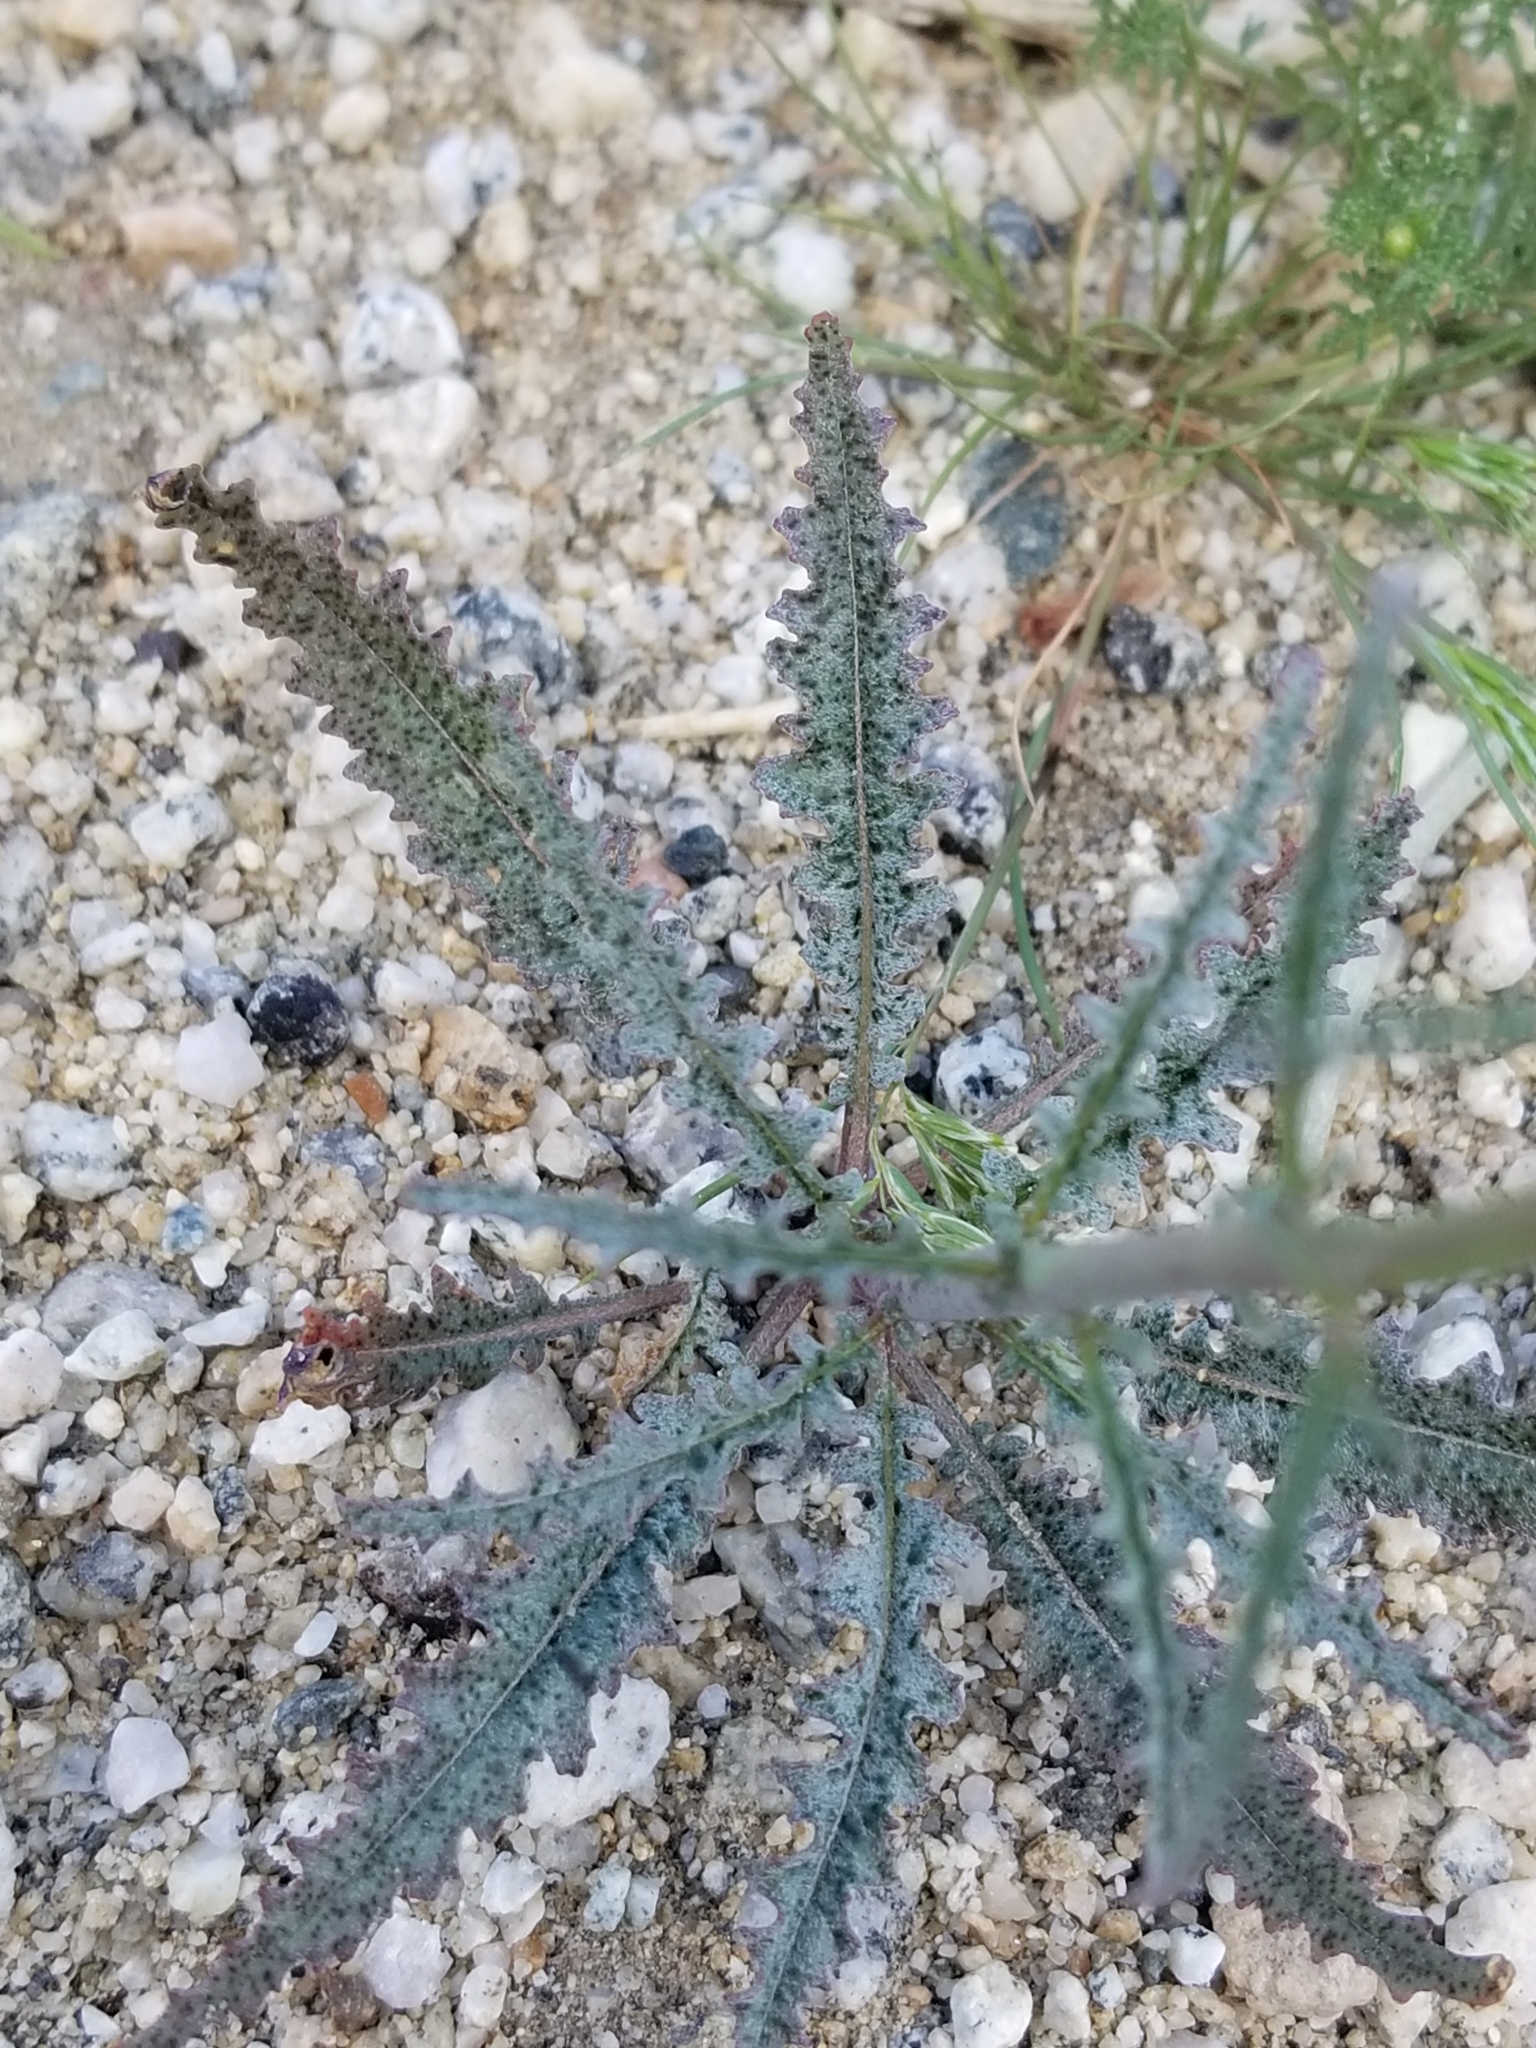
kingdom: Plantae
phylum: Tracheophyta
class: Magnoliopsida
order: Myrtales
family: Onagraceae
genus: Eulobus
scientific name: Eulobus californicus
